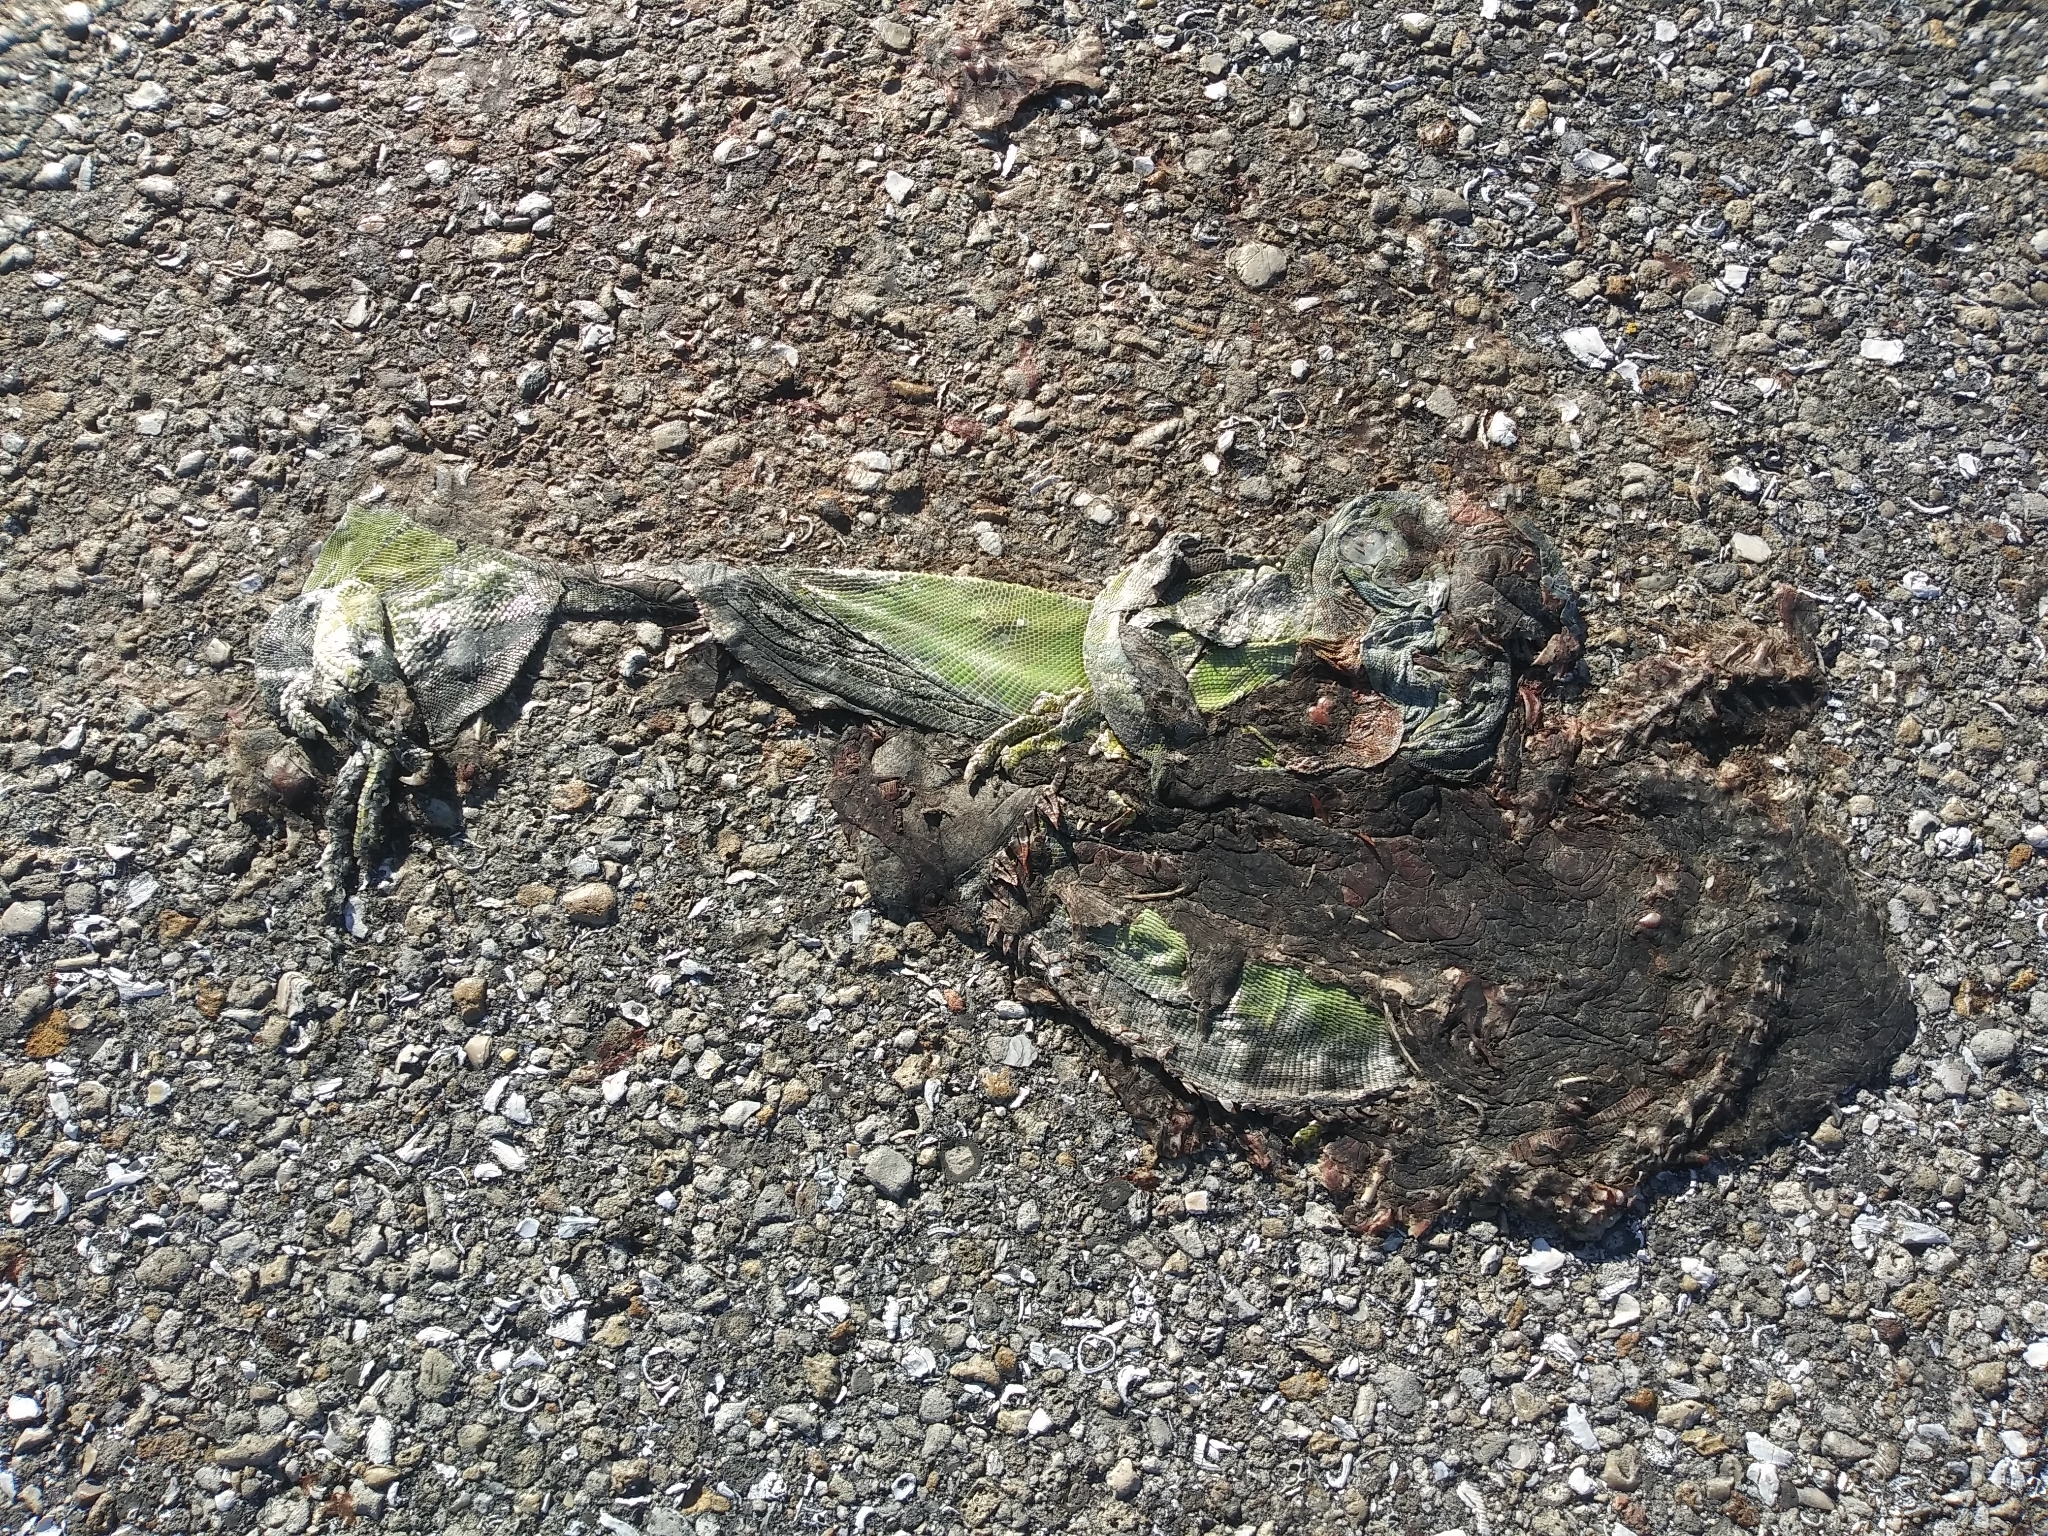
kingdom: Animalia
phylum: Chordata
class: Squamata
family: Iguanidae
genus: Iguana
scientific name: Iguana iguana
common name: Green iguana
